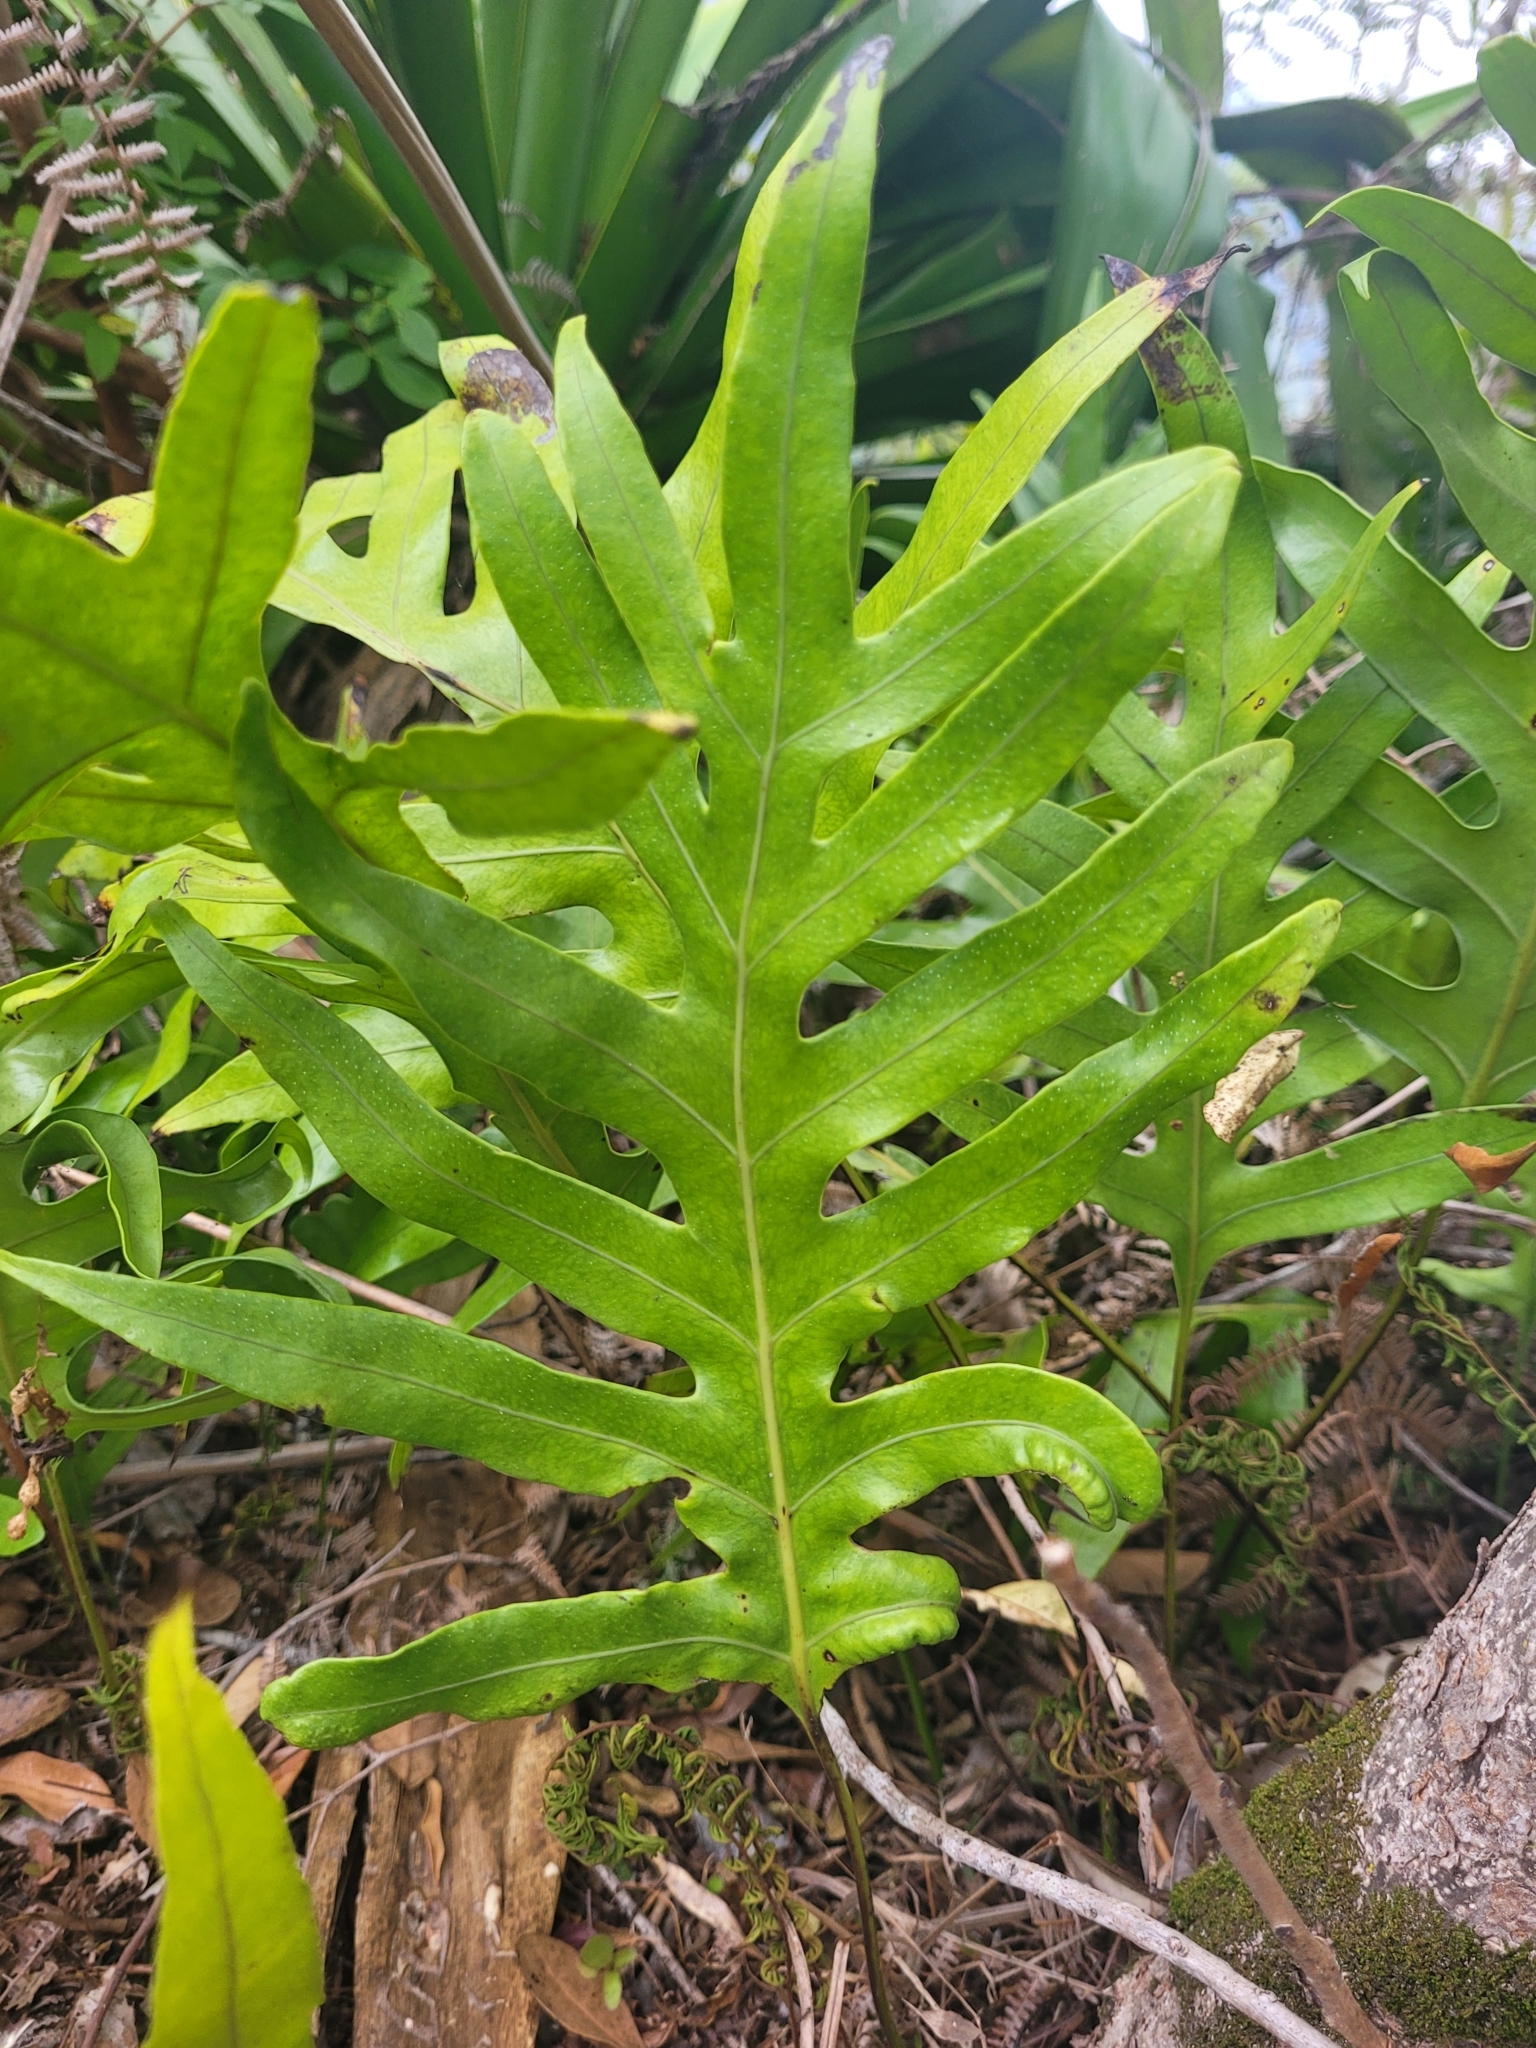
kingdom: Plantae
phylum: Tracheophyta
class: Polypodiopsida
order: Polypodiales
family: Polypodiaceae
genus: Microsorum
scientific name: Microsorum scolopendria
